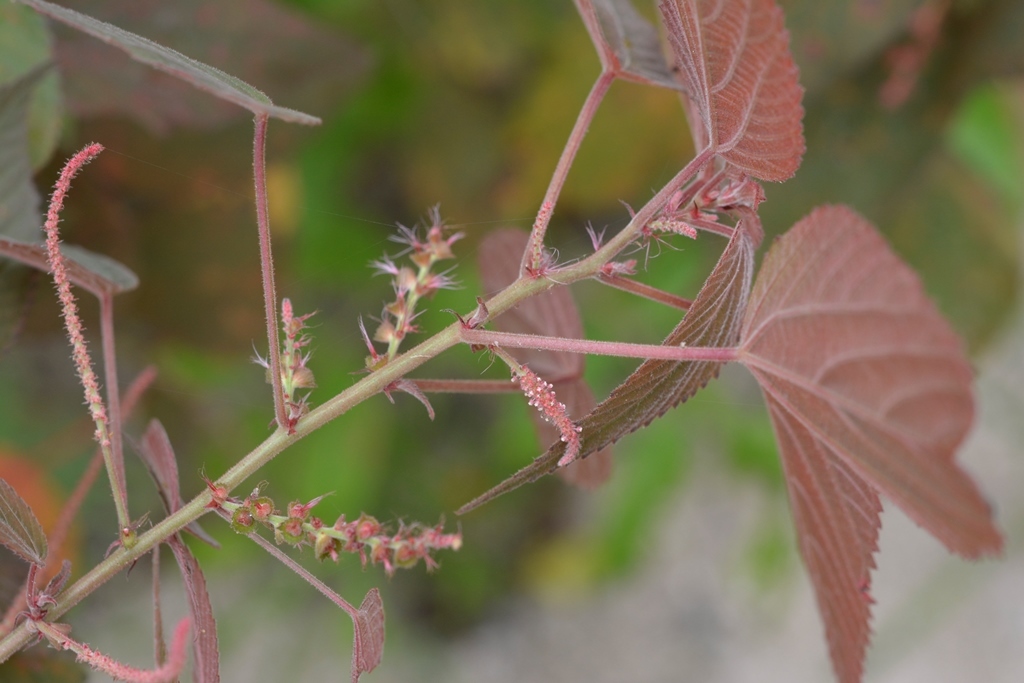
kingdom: Plantae
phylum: Tracheophyta
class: Magnoliopsida
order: Malpighiales
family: Euphorbiaceae
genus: Acalypha
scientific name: Acalypha chiapensis
